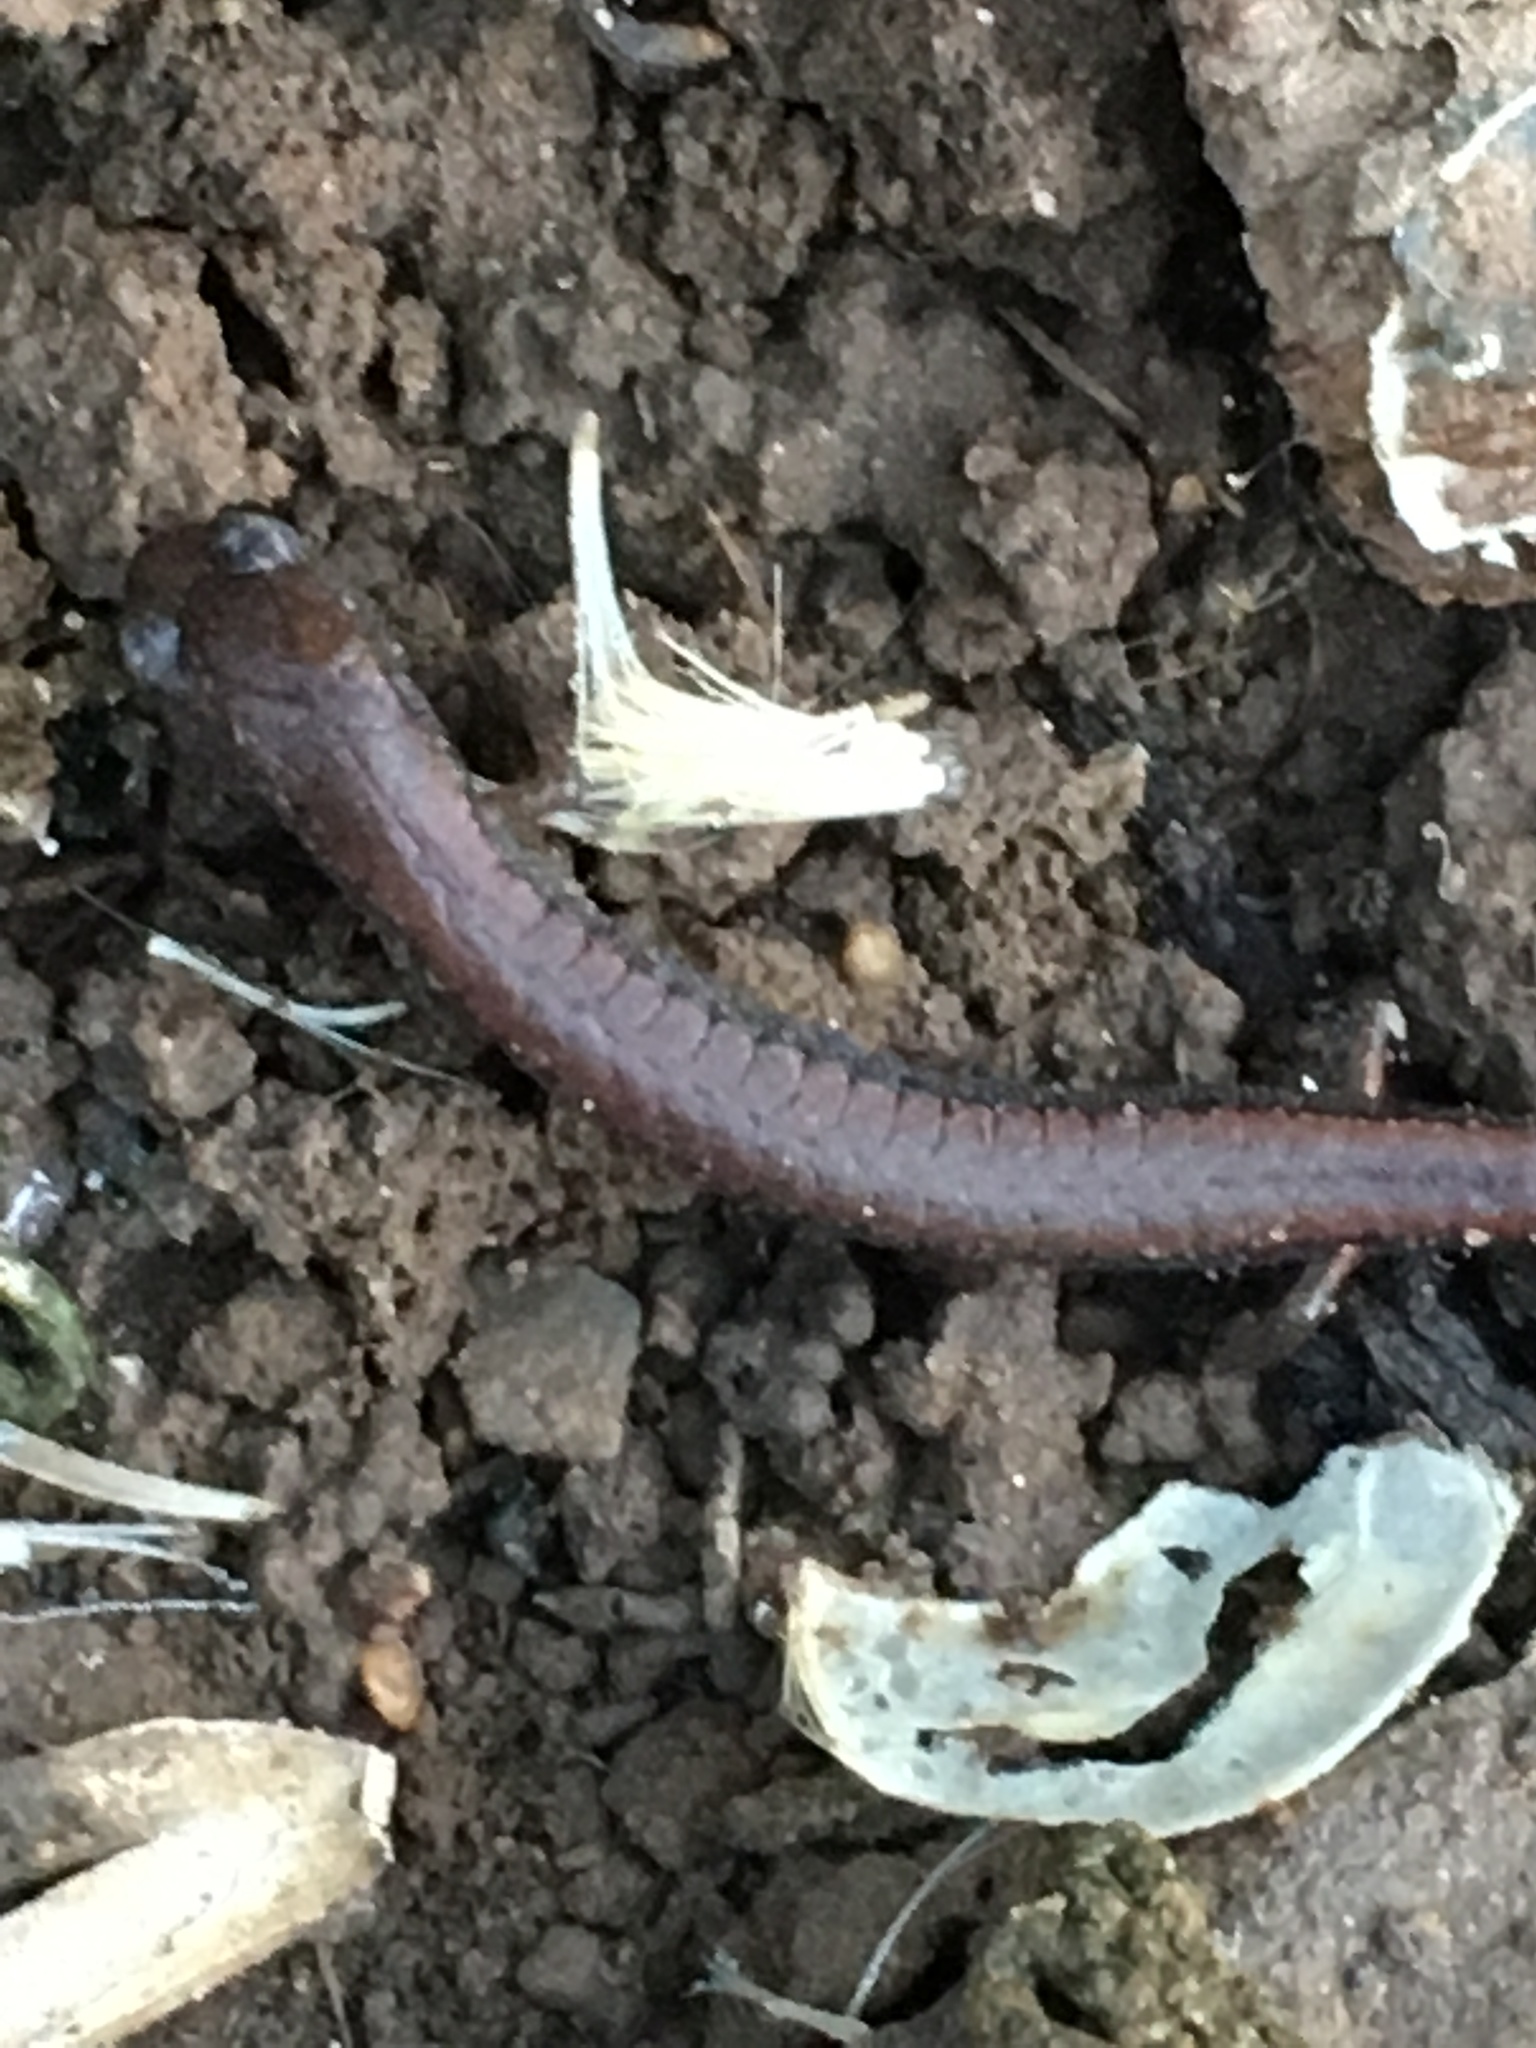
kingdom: Animalia
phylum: Chordata
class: Amphibia
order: Caudata
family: Plethodontidae
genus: Batrachoseps
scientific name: Batrachoseps major
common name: Garden slender salamander
